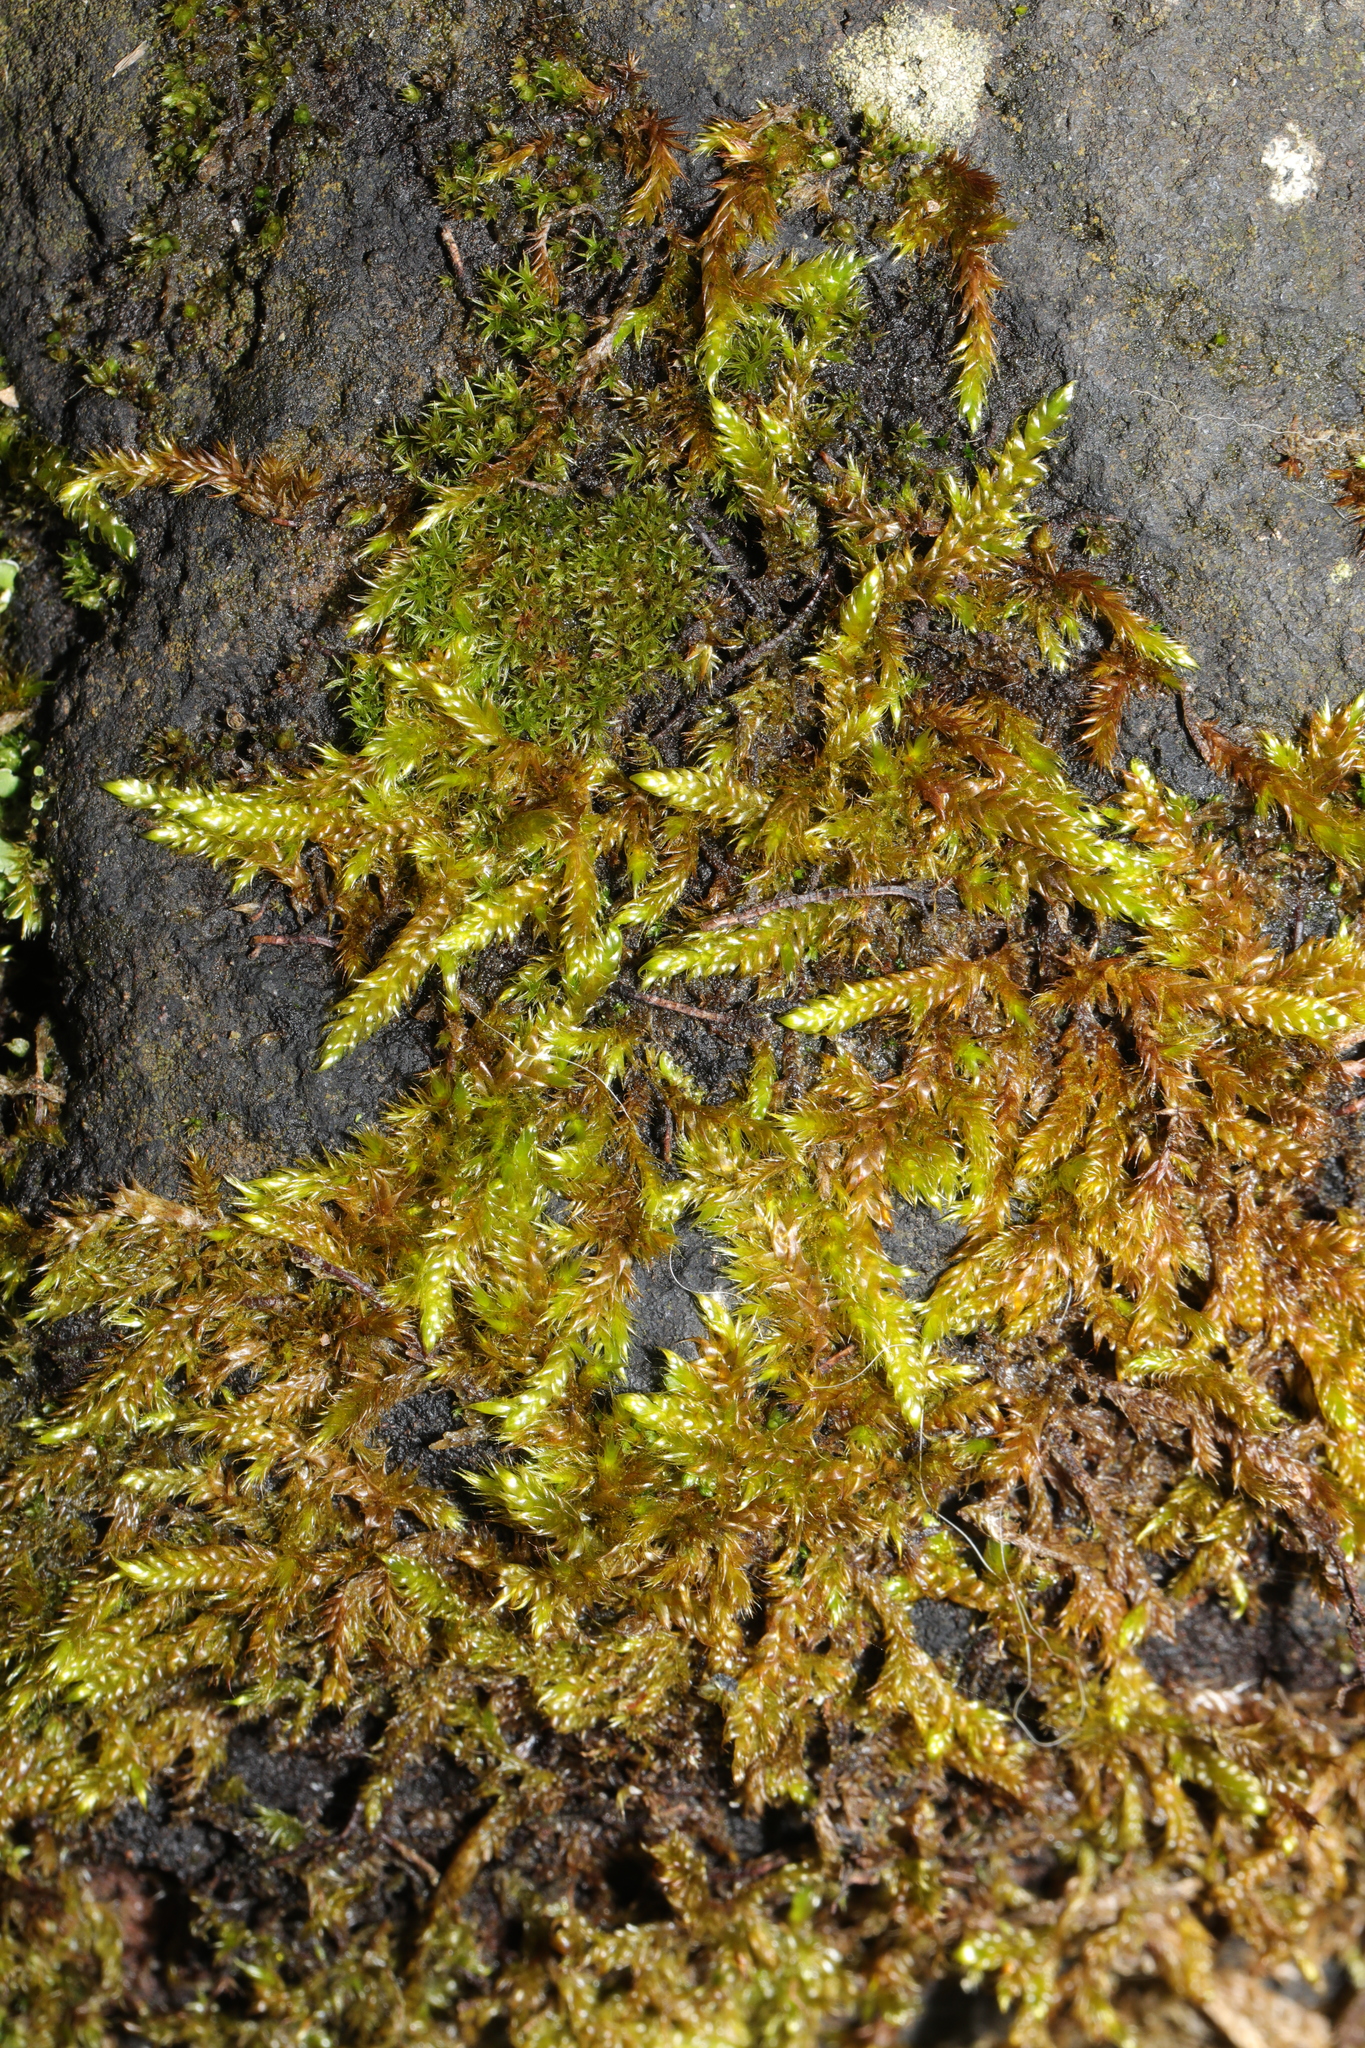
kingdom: Plantae
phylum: Bryophyta
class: Bryopsida
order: Hypnales
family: Hypnaceae
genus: Hypnum
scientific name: Hypnum cupressiforme
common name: Cypress-leaved plait-moss
